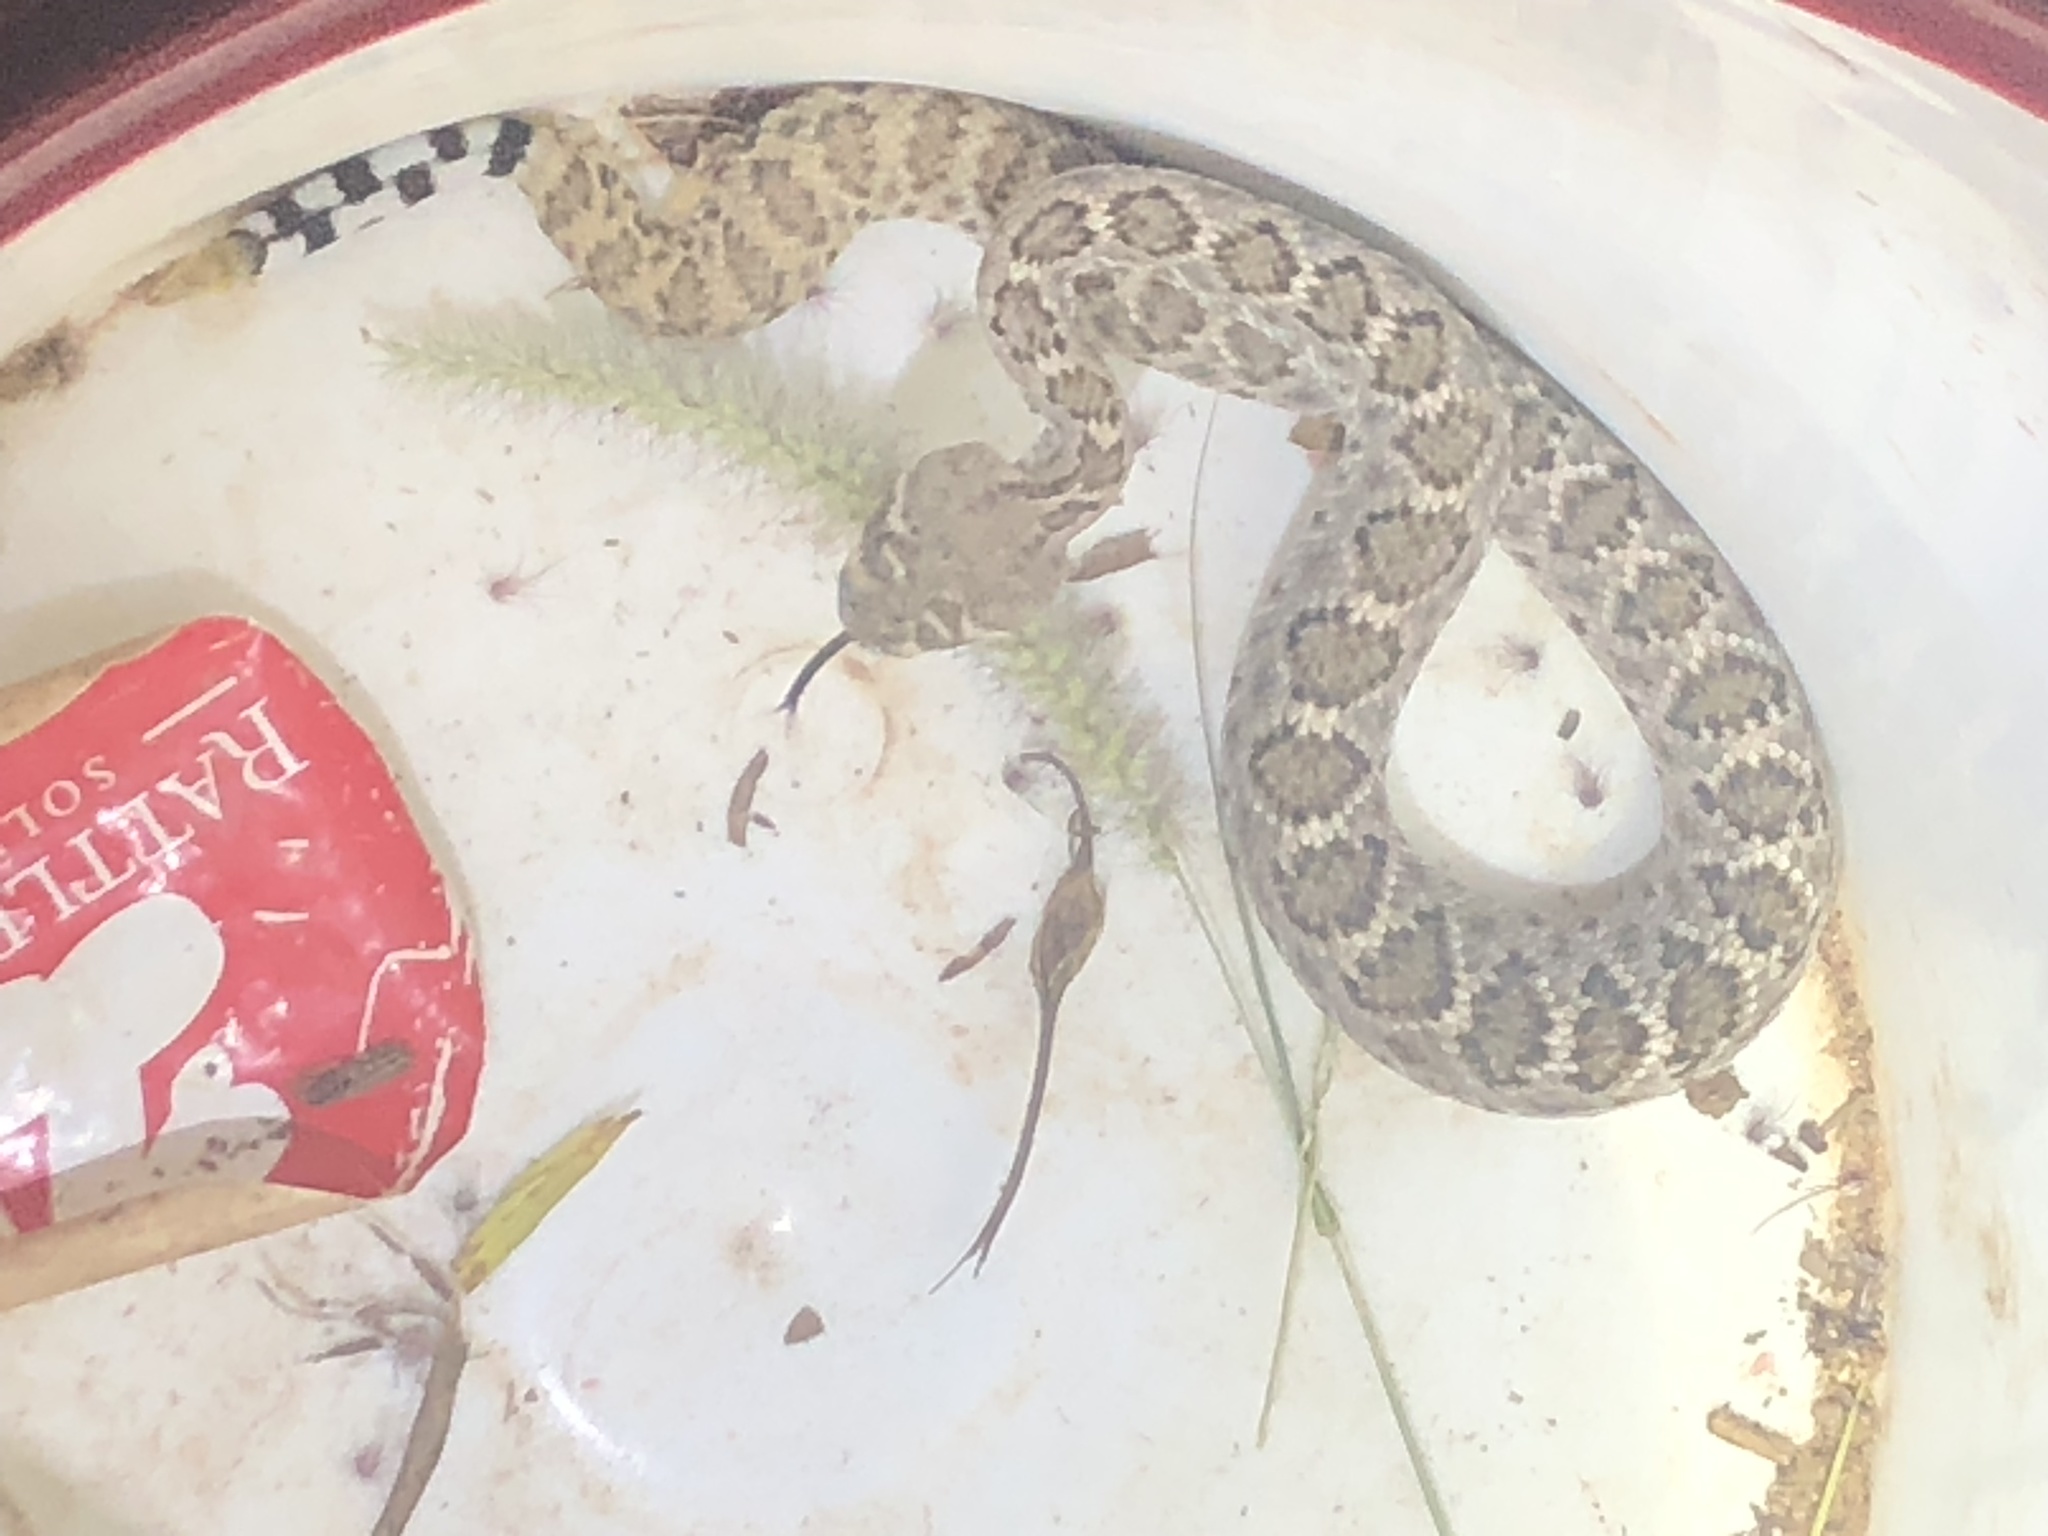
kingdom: Animalia
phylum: Chordata
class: Squamata
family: Viperidae
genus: Crotalus
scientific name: Crotalus atrox
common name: Western diamond-backed rattlesnake
